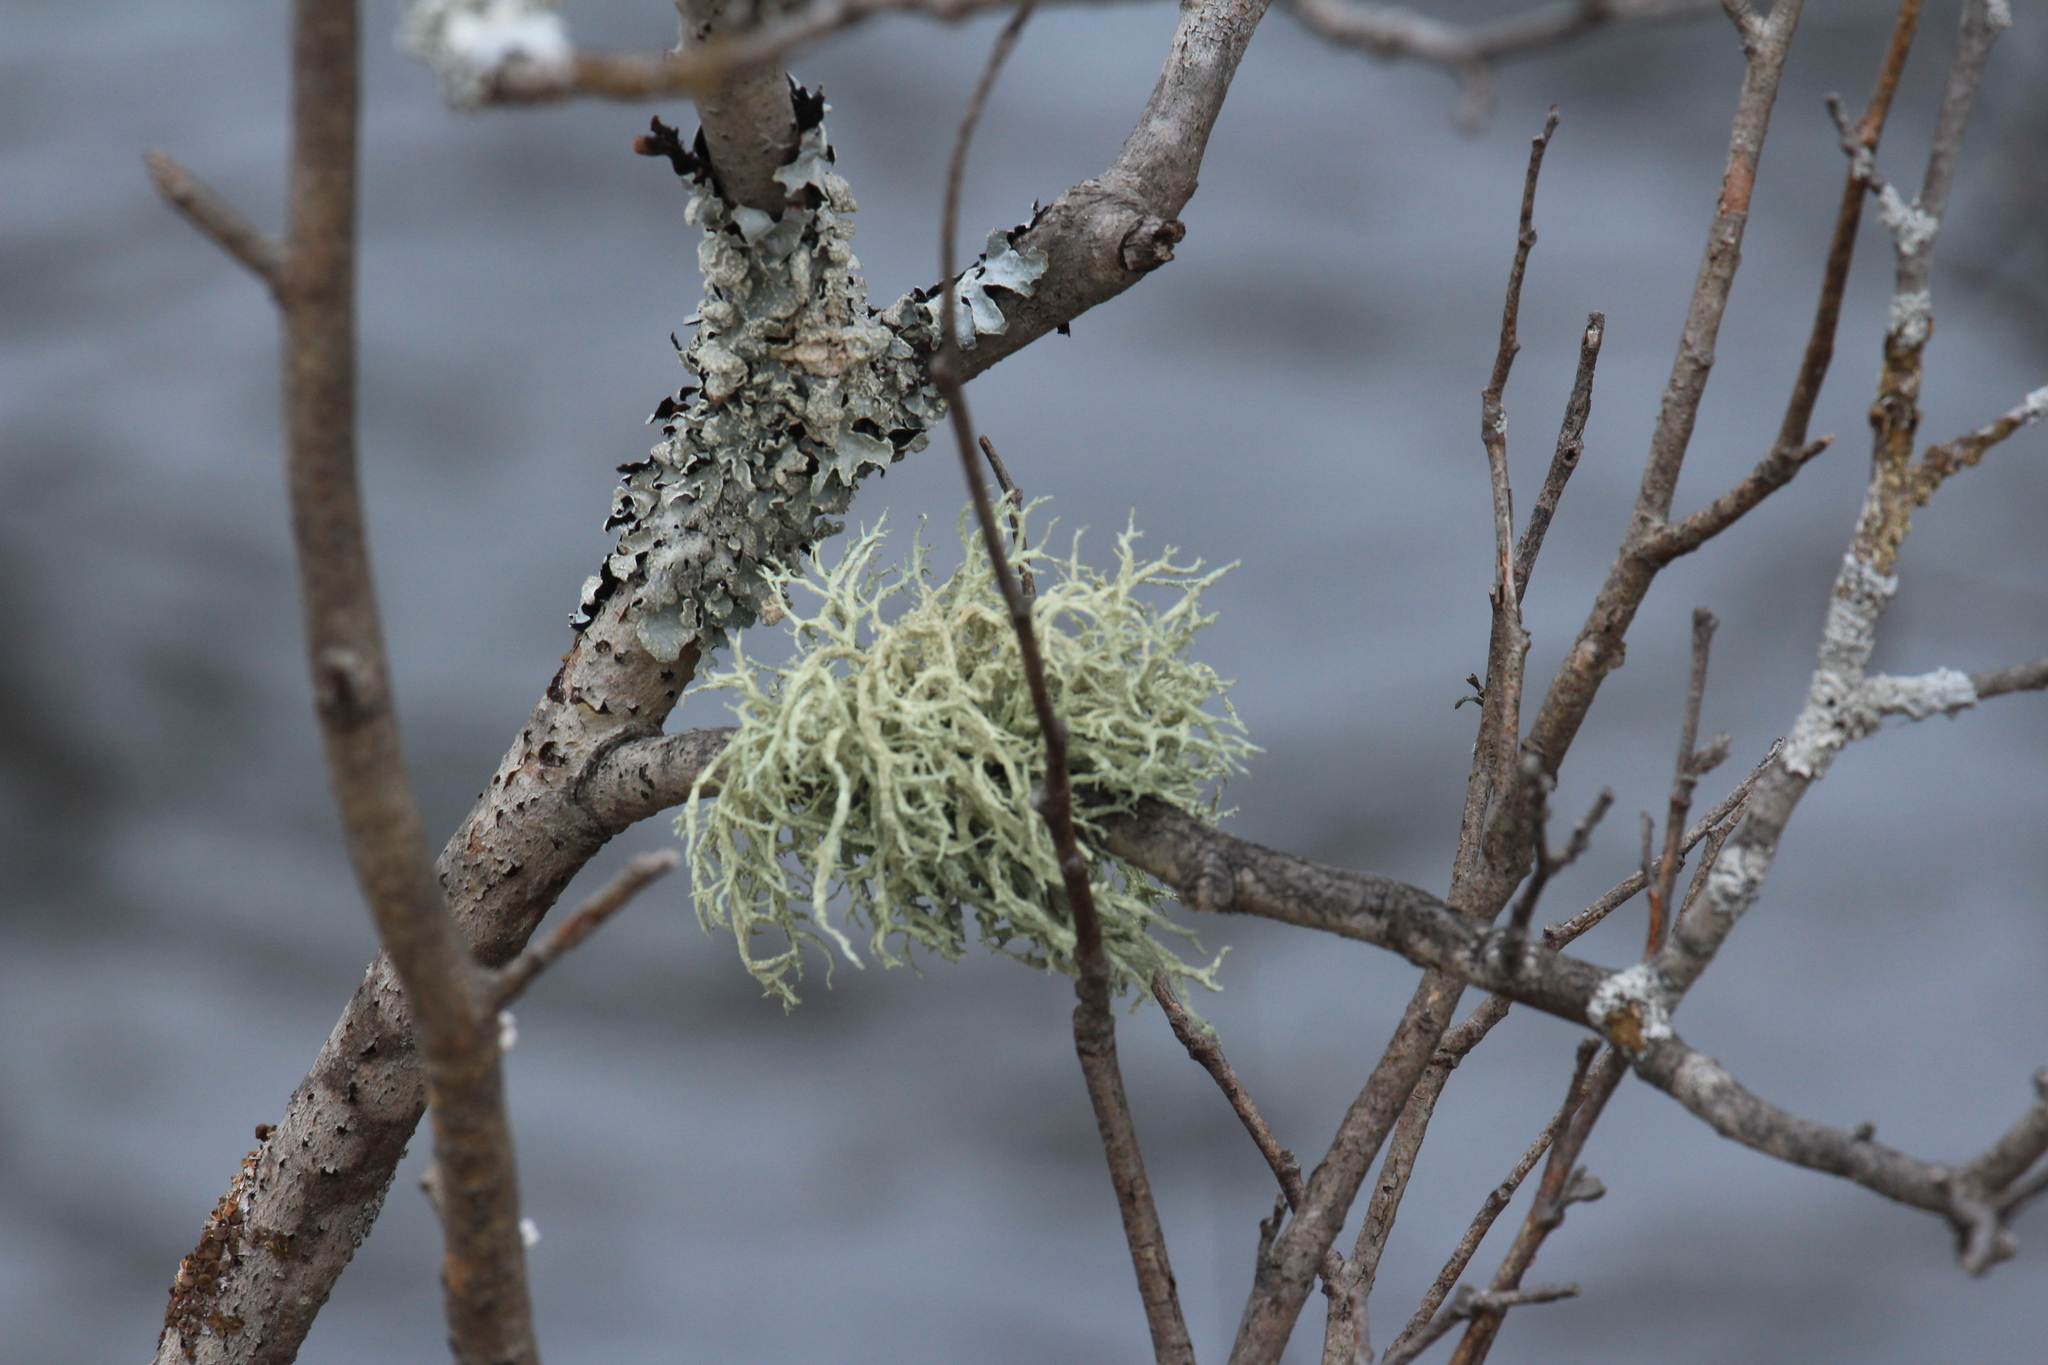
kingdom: Fungi
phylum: Ascomycota
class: Lecanoromycetes
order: Lecanorales
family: Parmeliaceae
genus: Evernia
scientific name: Evernia mesomorpha
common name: Boreal oak moss lichen
